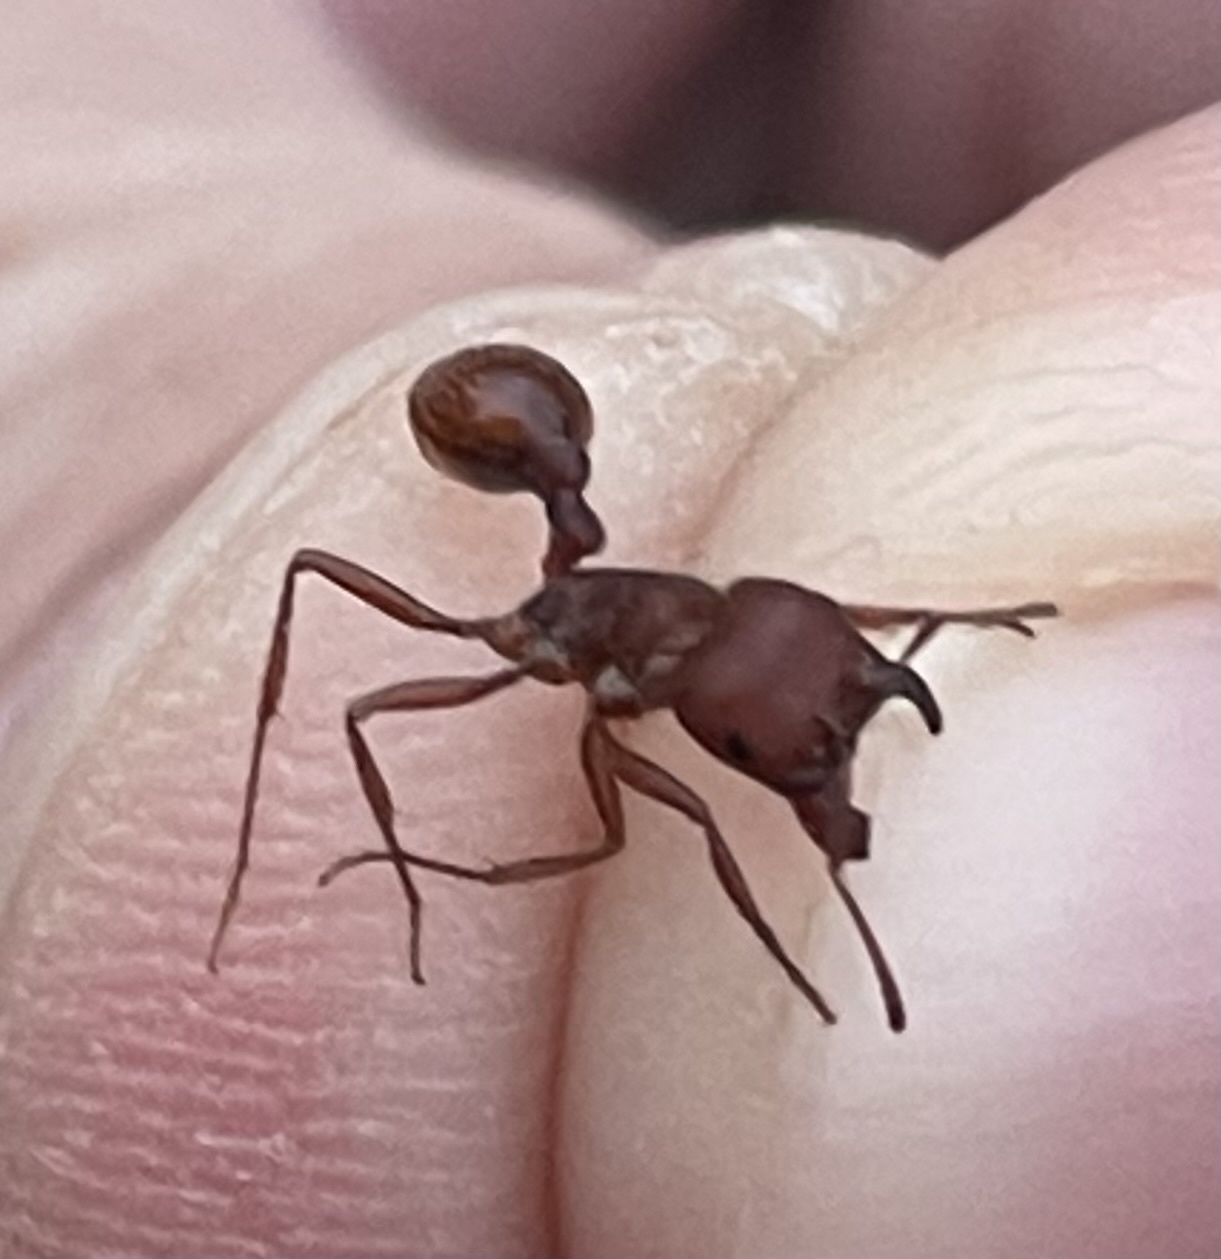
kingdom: Animalia
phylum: Arthropoda
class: Insecta
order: Hymenoptera
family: Formicidae
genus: Pogonomyrmex
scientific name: Pogonomyrmex barbatus
